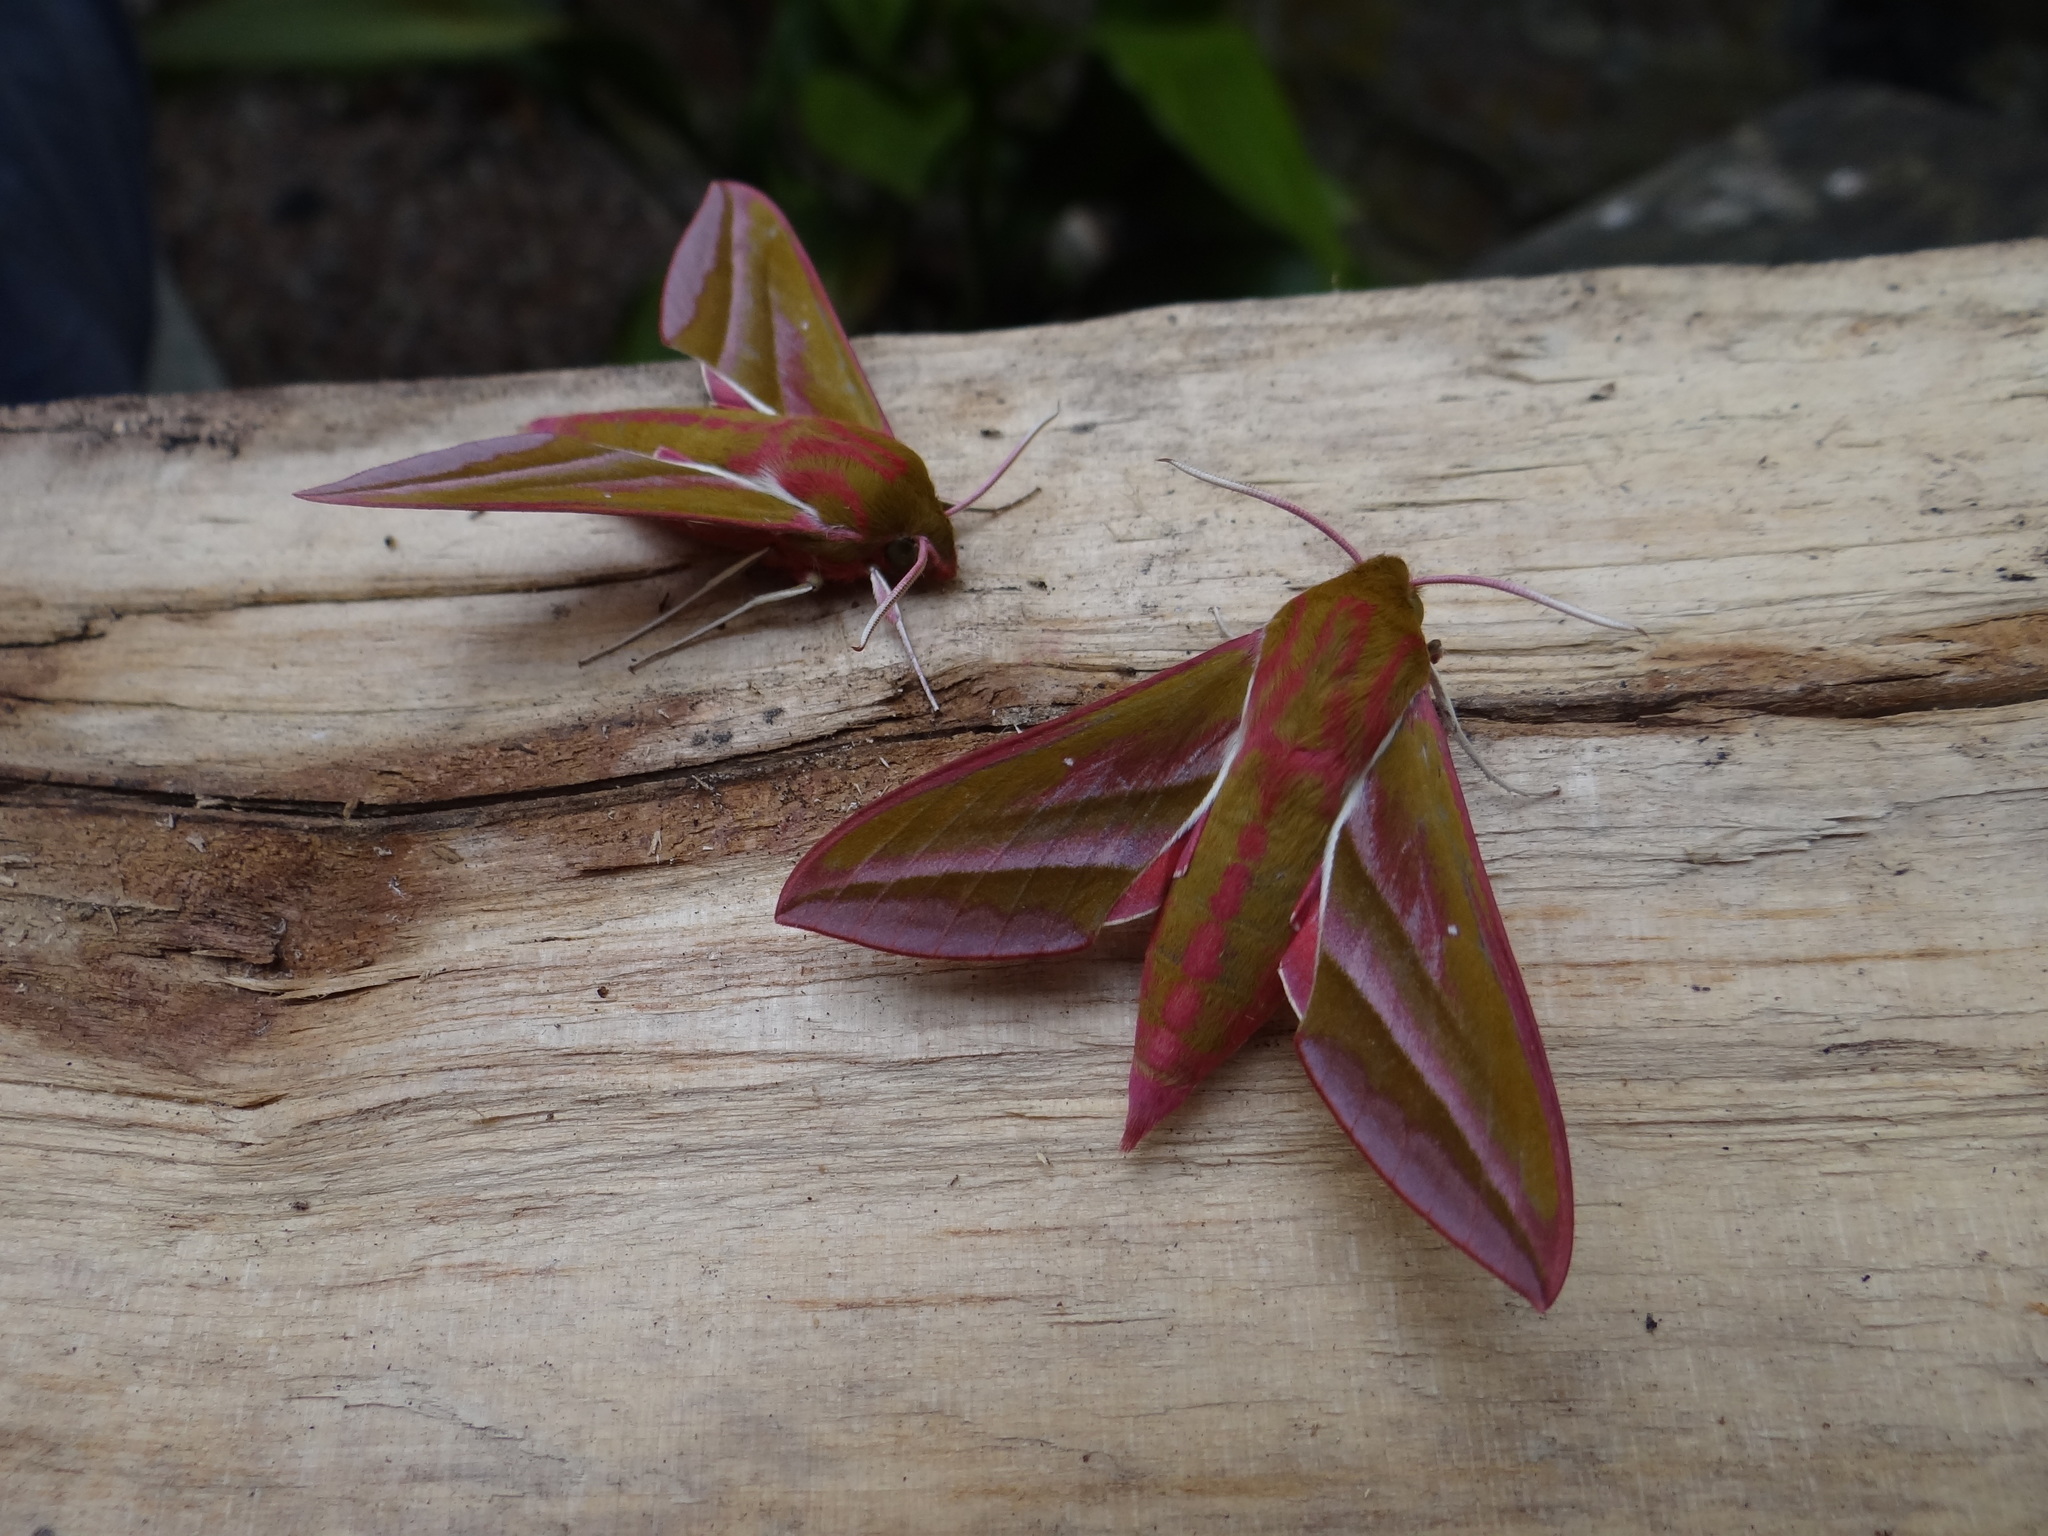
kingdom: Animalia
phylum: Arthropoda
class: Insecta
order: Lepidoptera
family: Sphingidae
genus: Deilephila
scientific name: Deilephila elpenor
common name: Elephant hawk-moth
